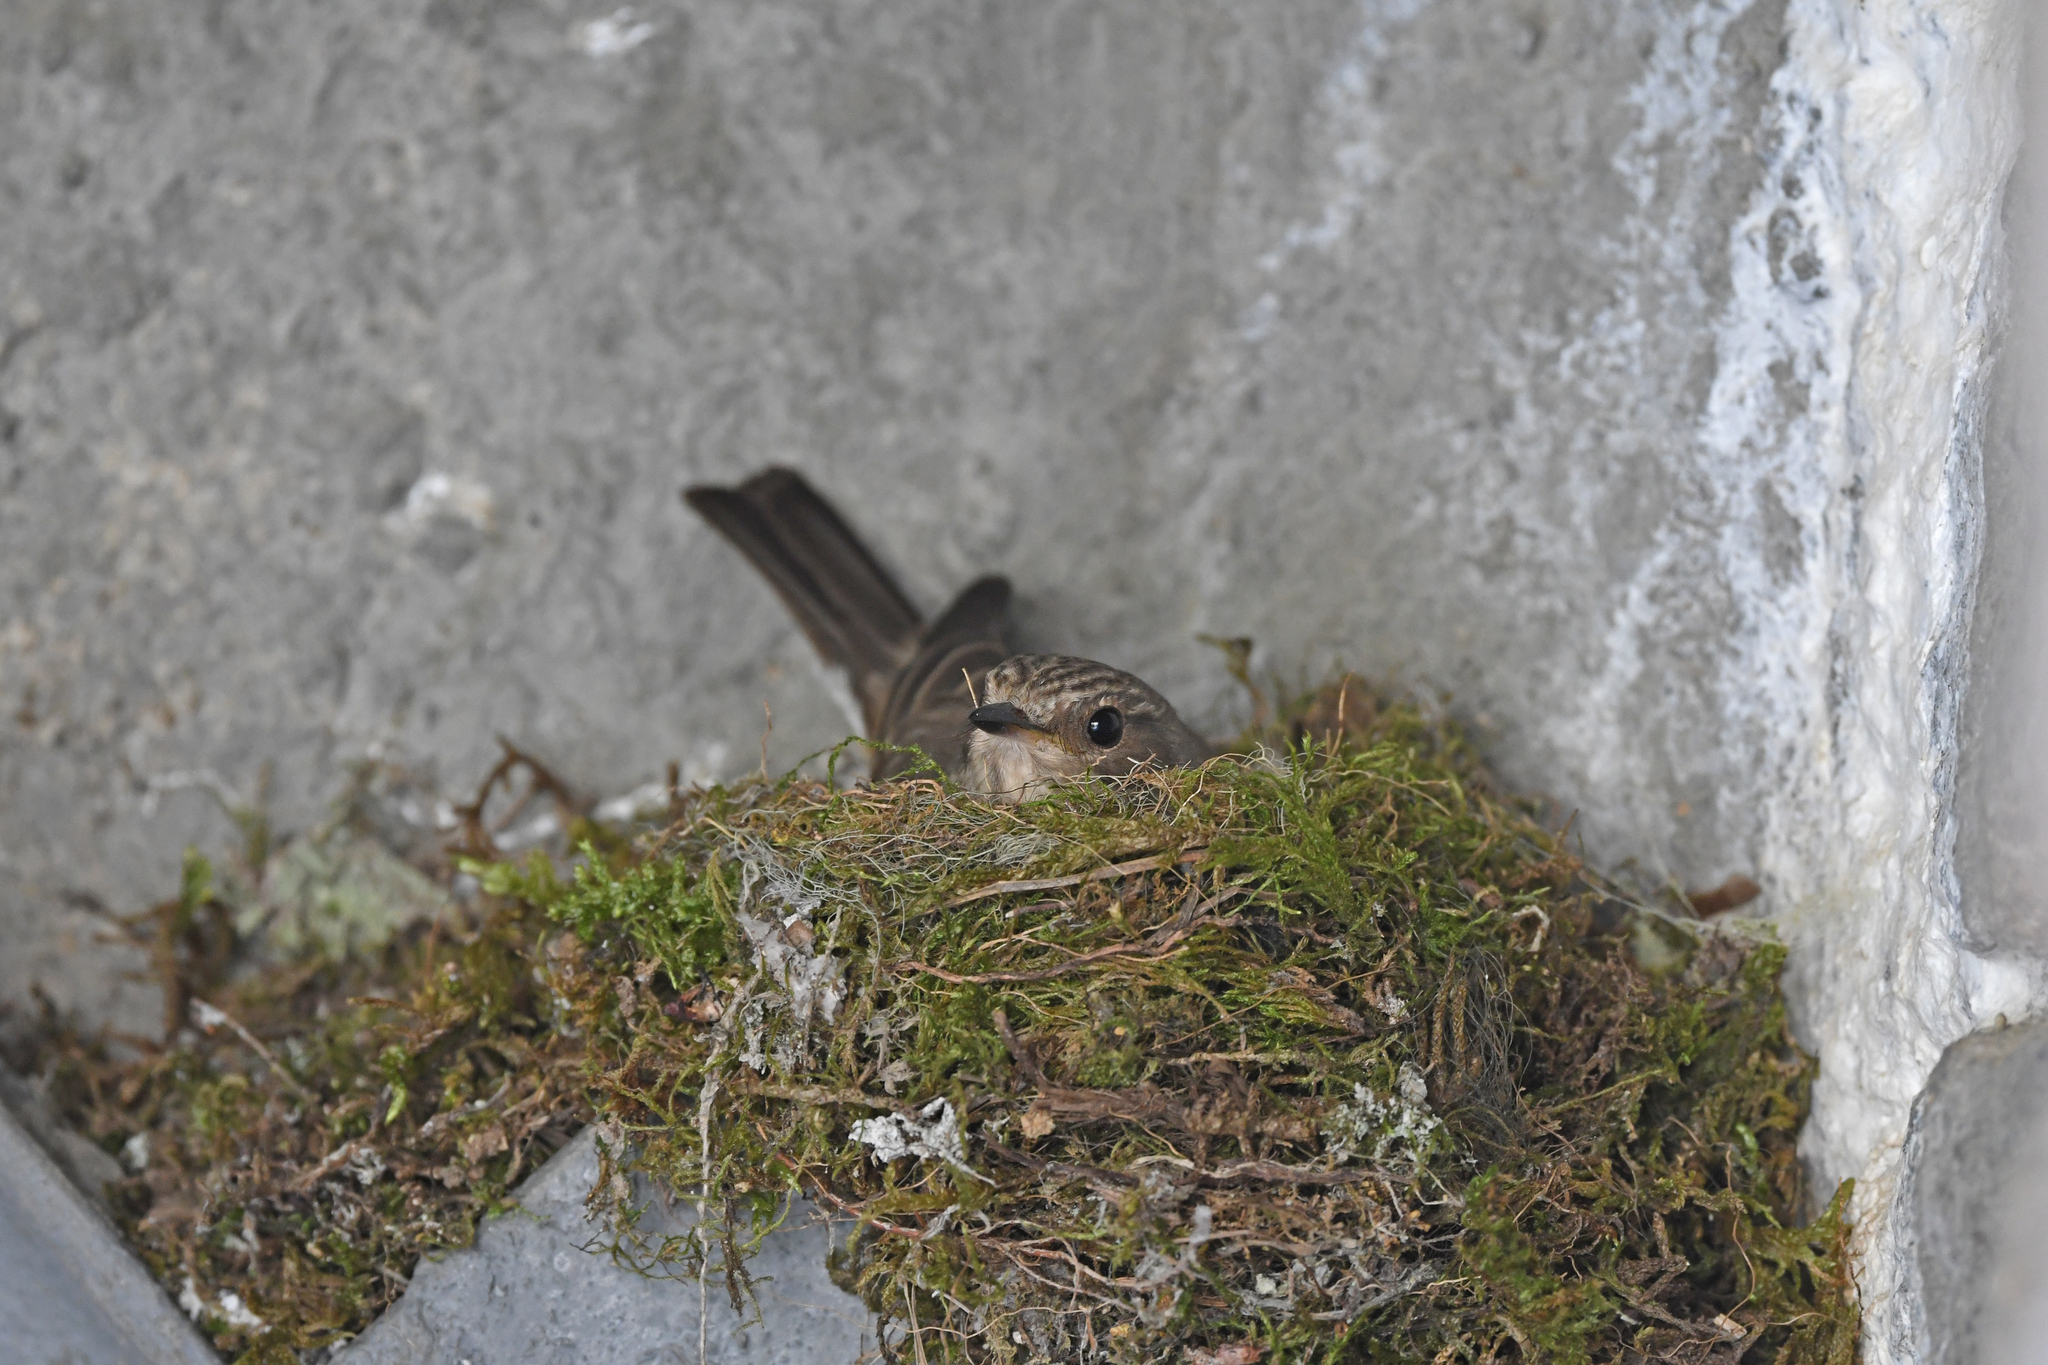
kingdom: Animalia
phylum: Chordata
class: Aves
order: Passeriformes
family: Muscicapidae
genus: Muscicapa
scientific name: Muscicapa striata
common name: Spotted flycatcher
